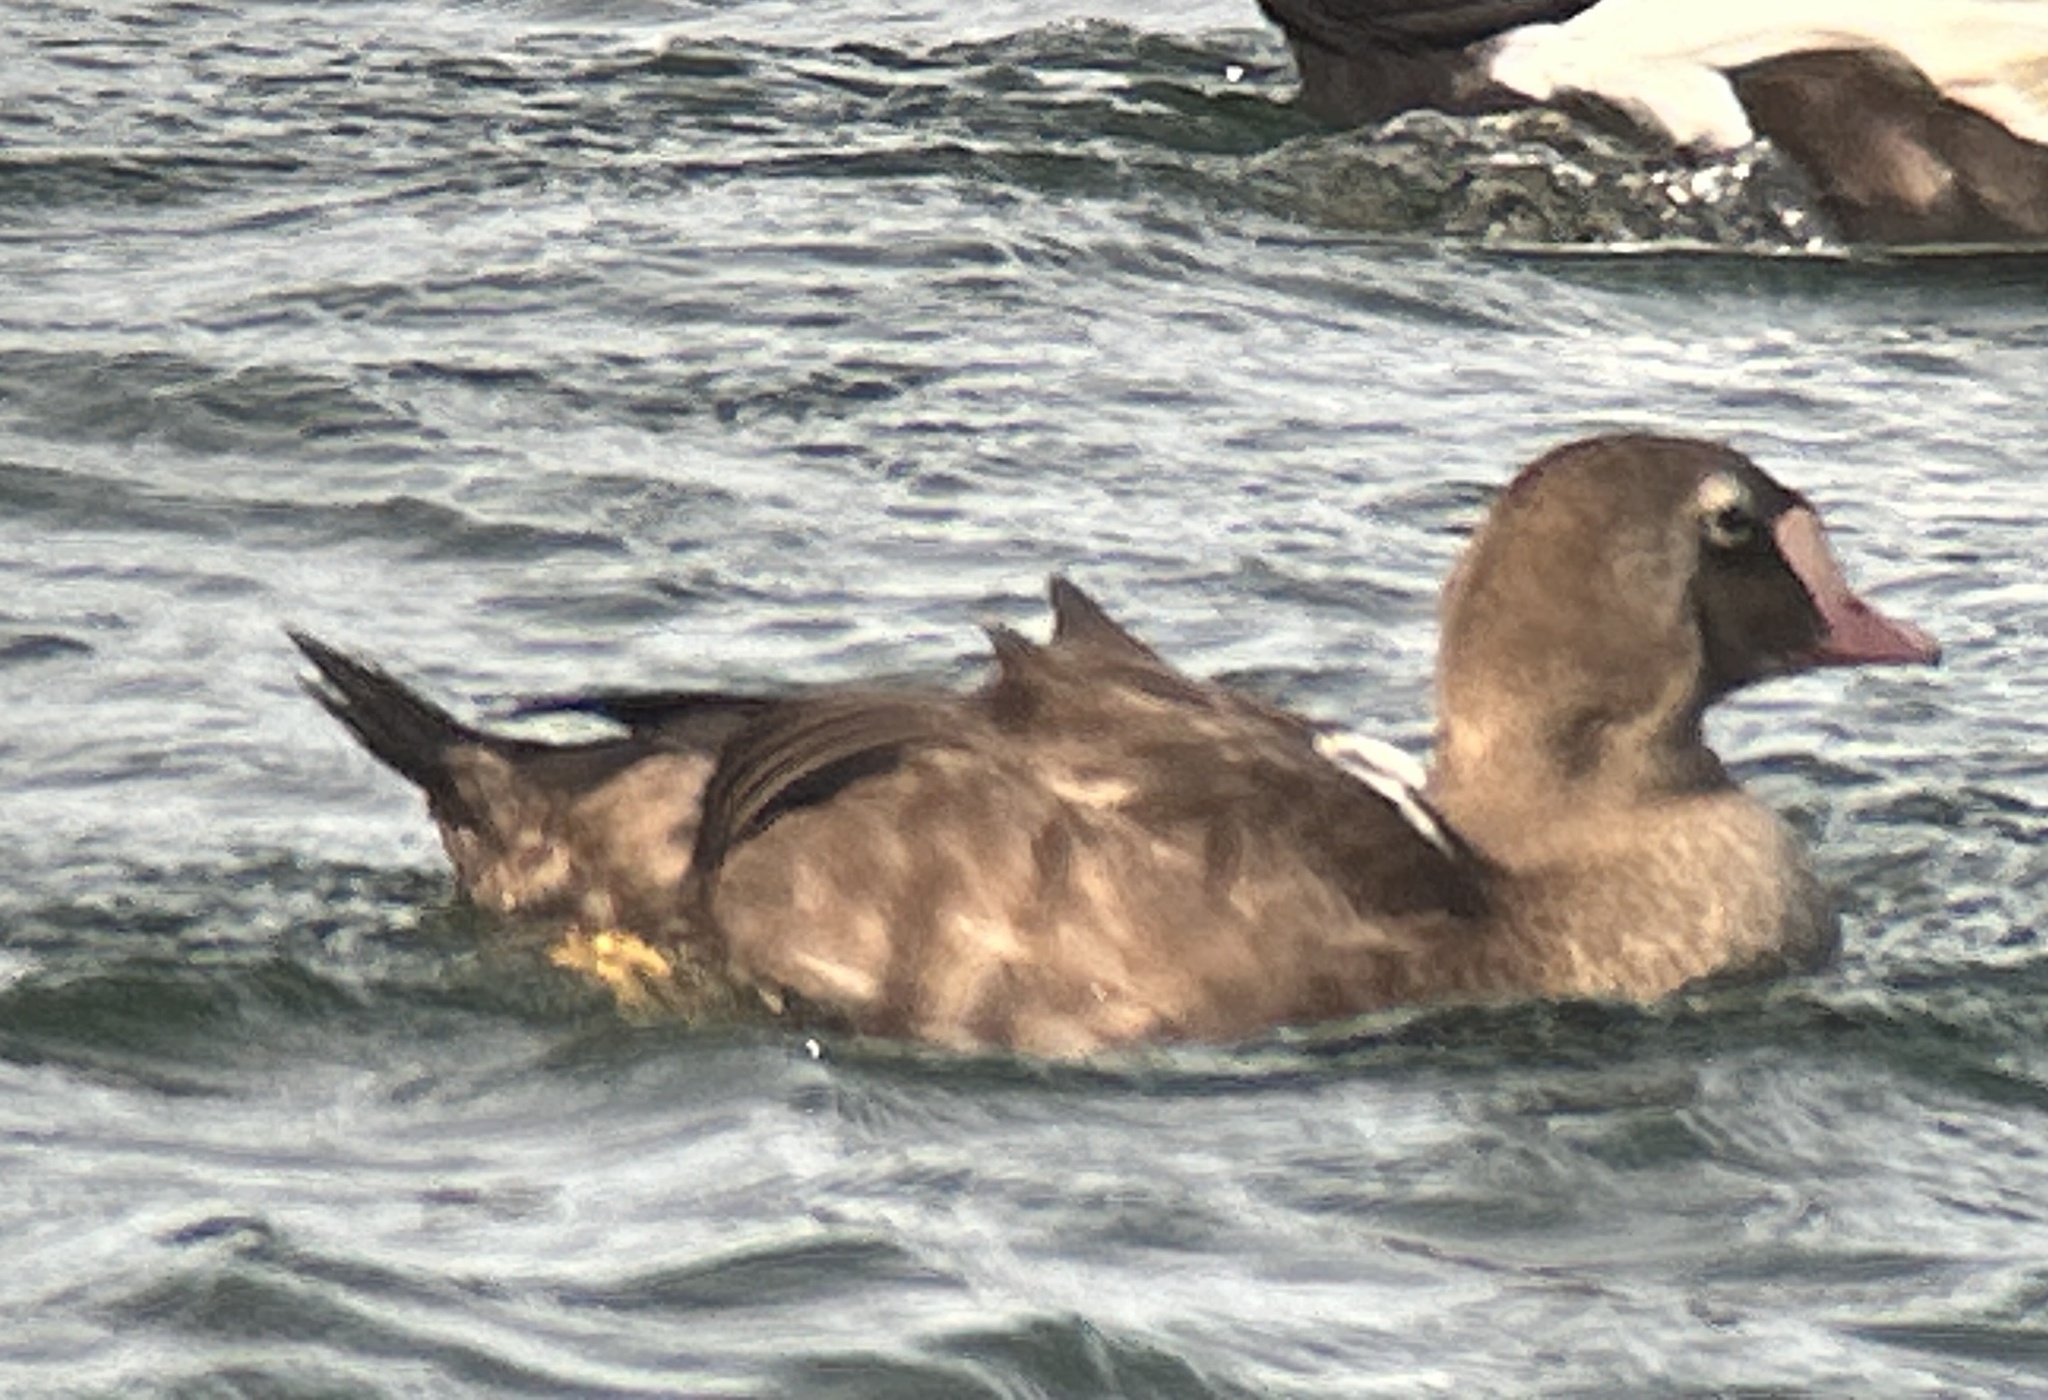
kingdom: Animalia
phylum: Chordata
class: Aves
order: Anseriformes
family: Anatidae
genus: Somateria
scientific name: Somateria spectabilis
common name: King eider
